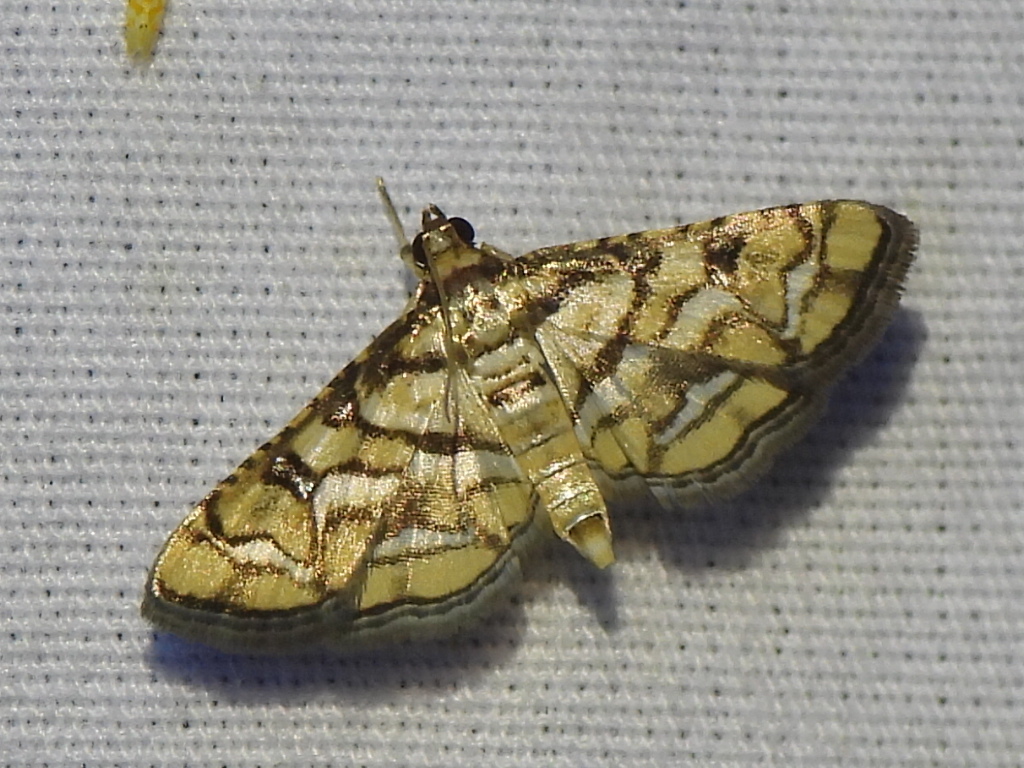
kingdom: Animalia
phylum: Arthropoda
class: Insecta
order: Lepidoptera
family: Crambidae
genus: Hileithia
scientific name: Hileithia magualis
